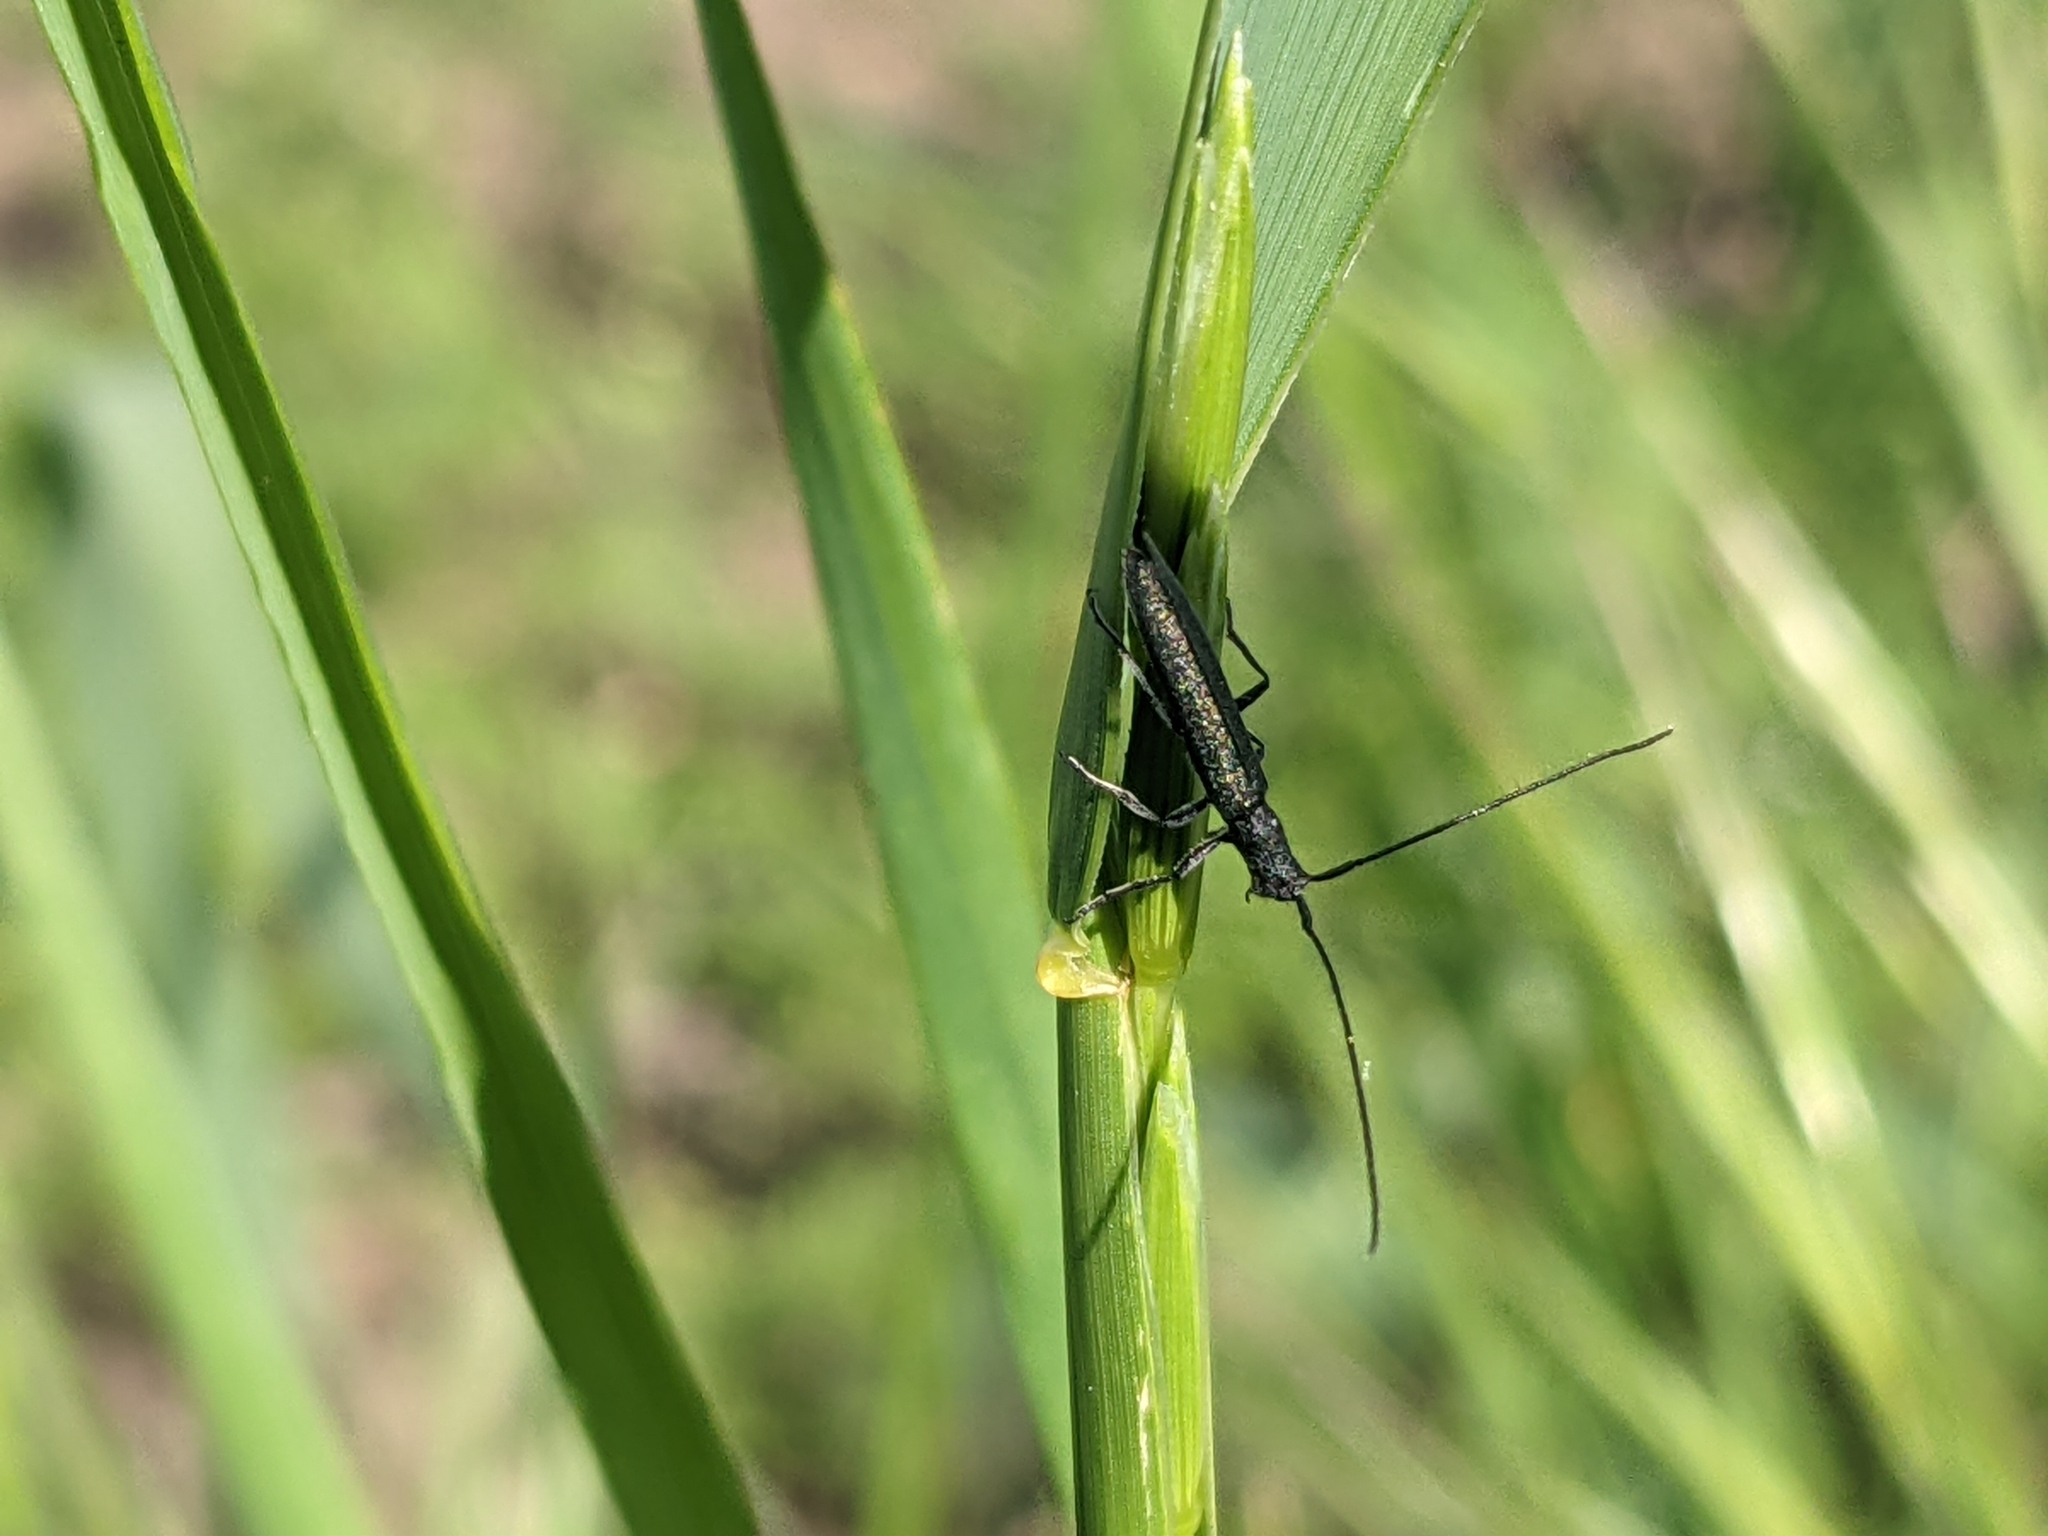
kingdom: Animalia
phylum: Arthropoda
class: Insecta
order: Coleoptera
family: Cerambycidae
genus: Theophilea
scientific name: Theophilea subcylindricollis
